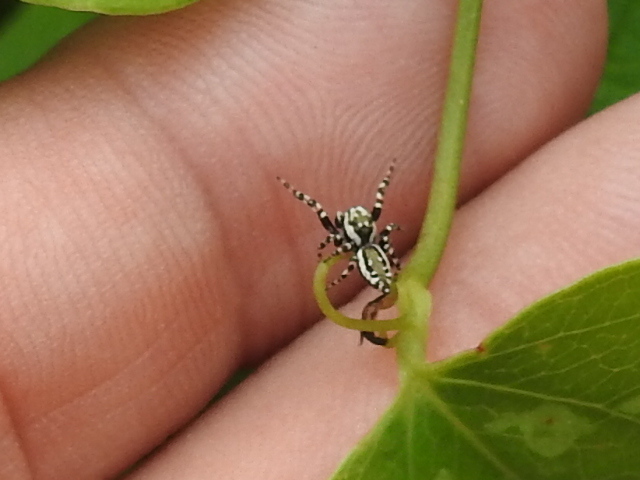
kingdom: Animalia
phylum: Arthropoda
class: Arachnida
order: Araneae
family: Salticidae
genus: Pelegrina
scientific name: Pelegrina galathea
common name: Jumping spiders
